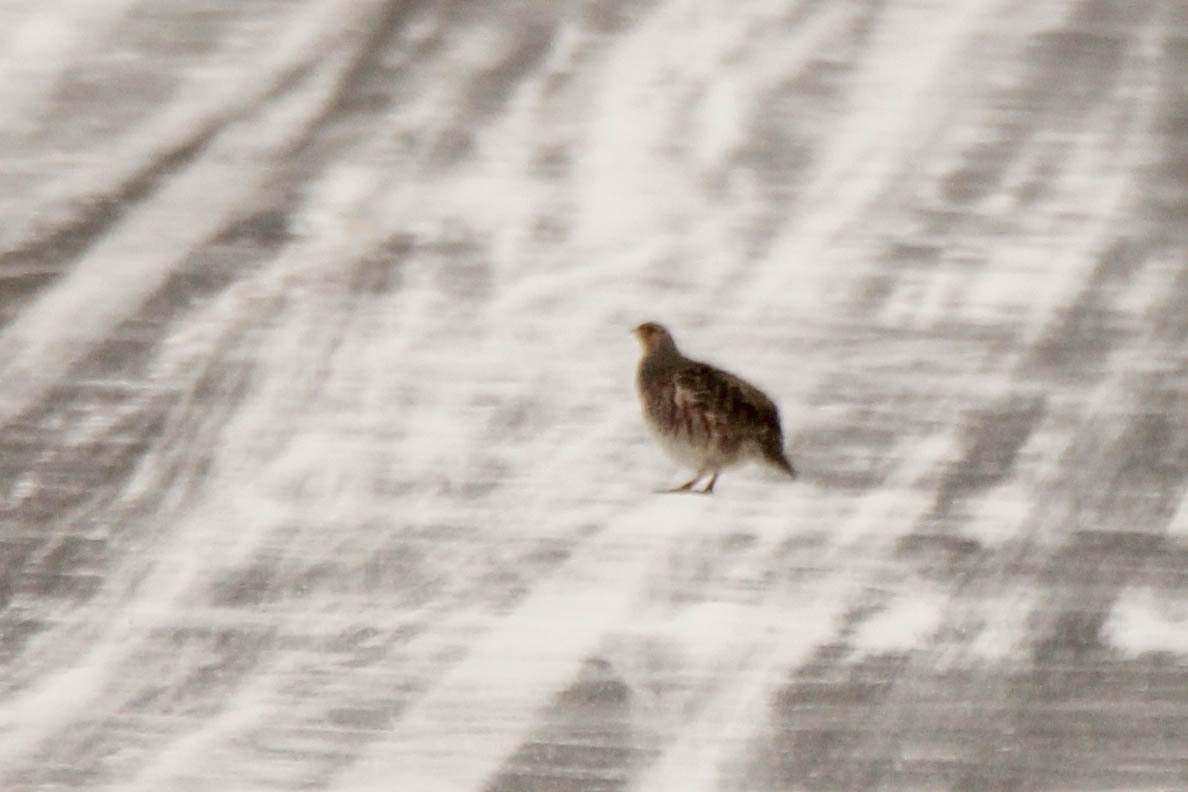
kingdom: Animalia
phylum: Chordata
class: Aves
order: Galliformes
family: Phasianidae
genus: Perdix
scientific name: Perdix perdix
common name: Grey partridge
